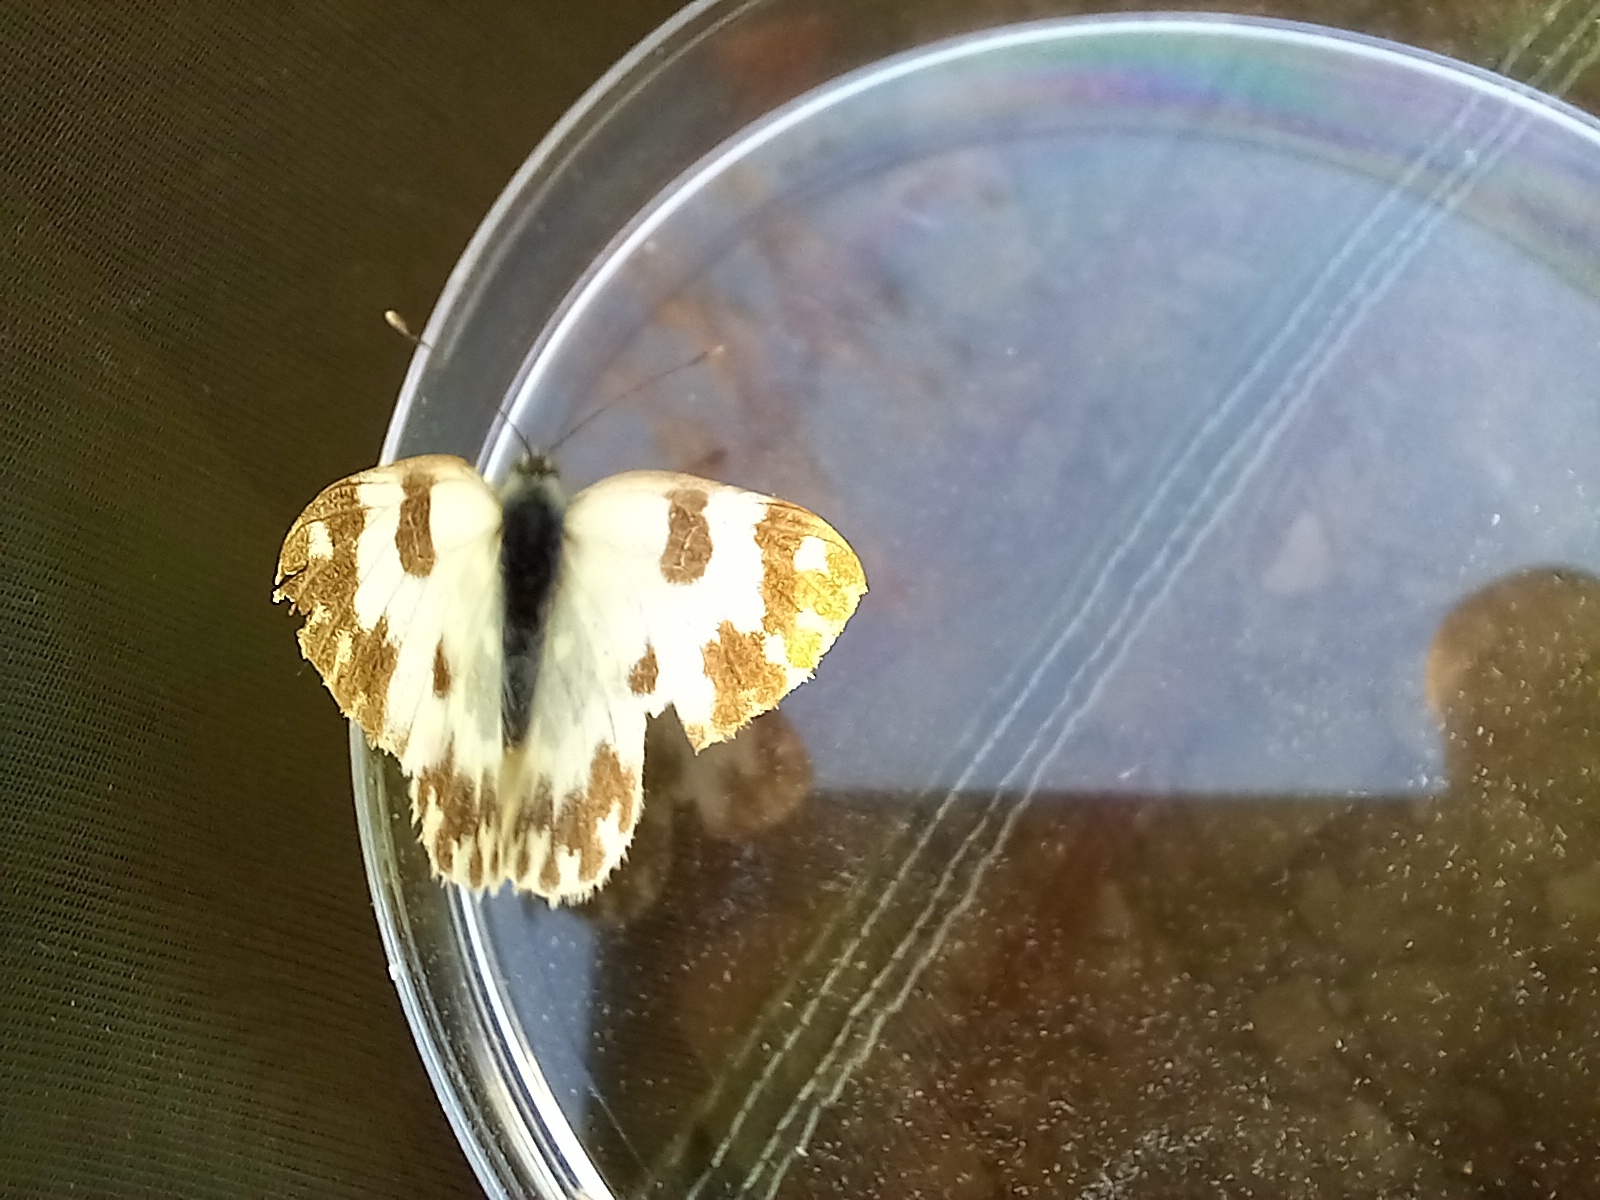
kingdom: Animalia
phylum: Arthropoda
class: Insecta
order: Lepidoptera
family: Pieridae
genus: Pontia
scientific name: Pontia daplidice
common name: Bath white
